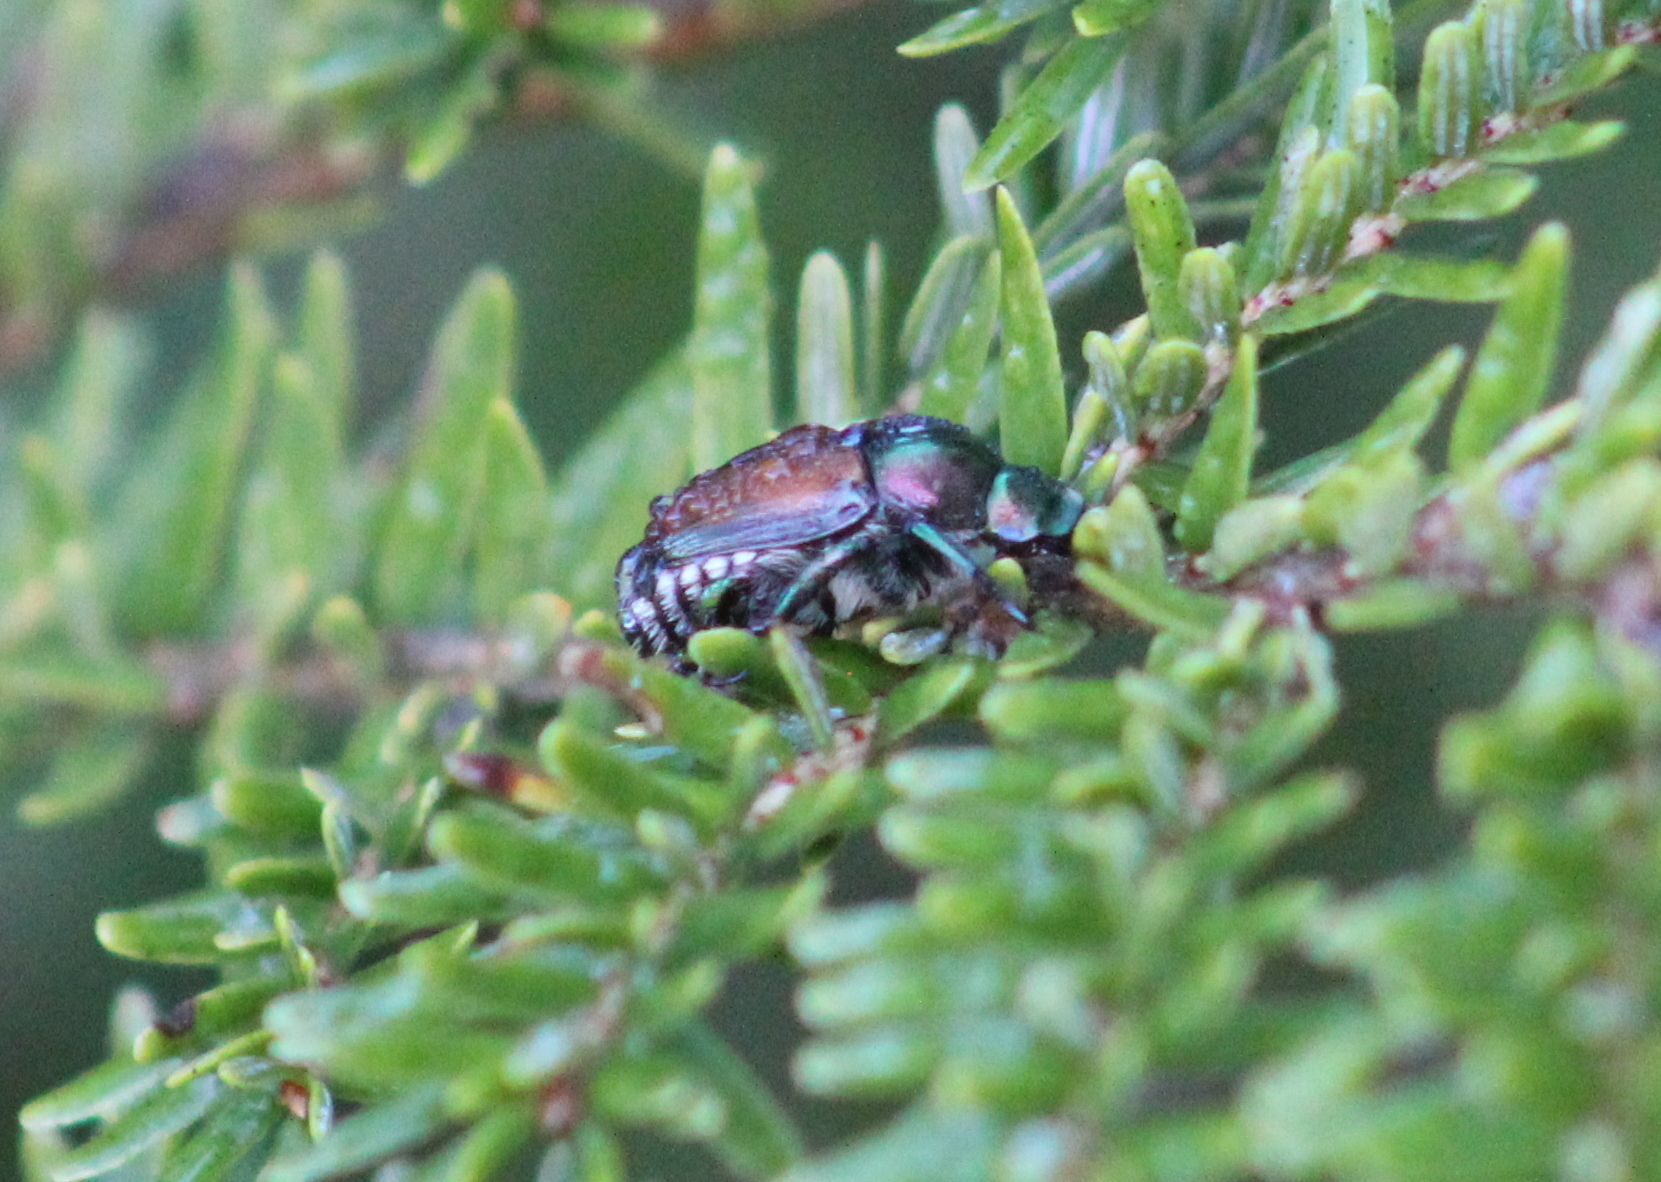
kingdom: Animalia
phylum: Arthropoda
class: Insecta
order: Coleoptera
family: Scarabaeidae
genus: Popillia
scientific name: Popillia japonica
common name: Japanese beetle
